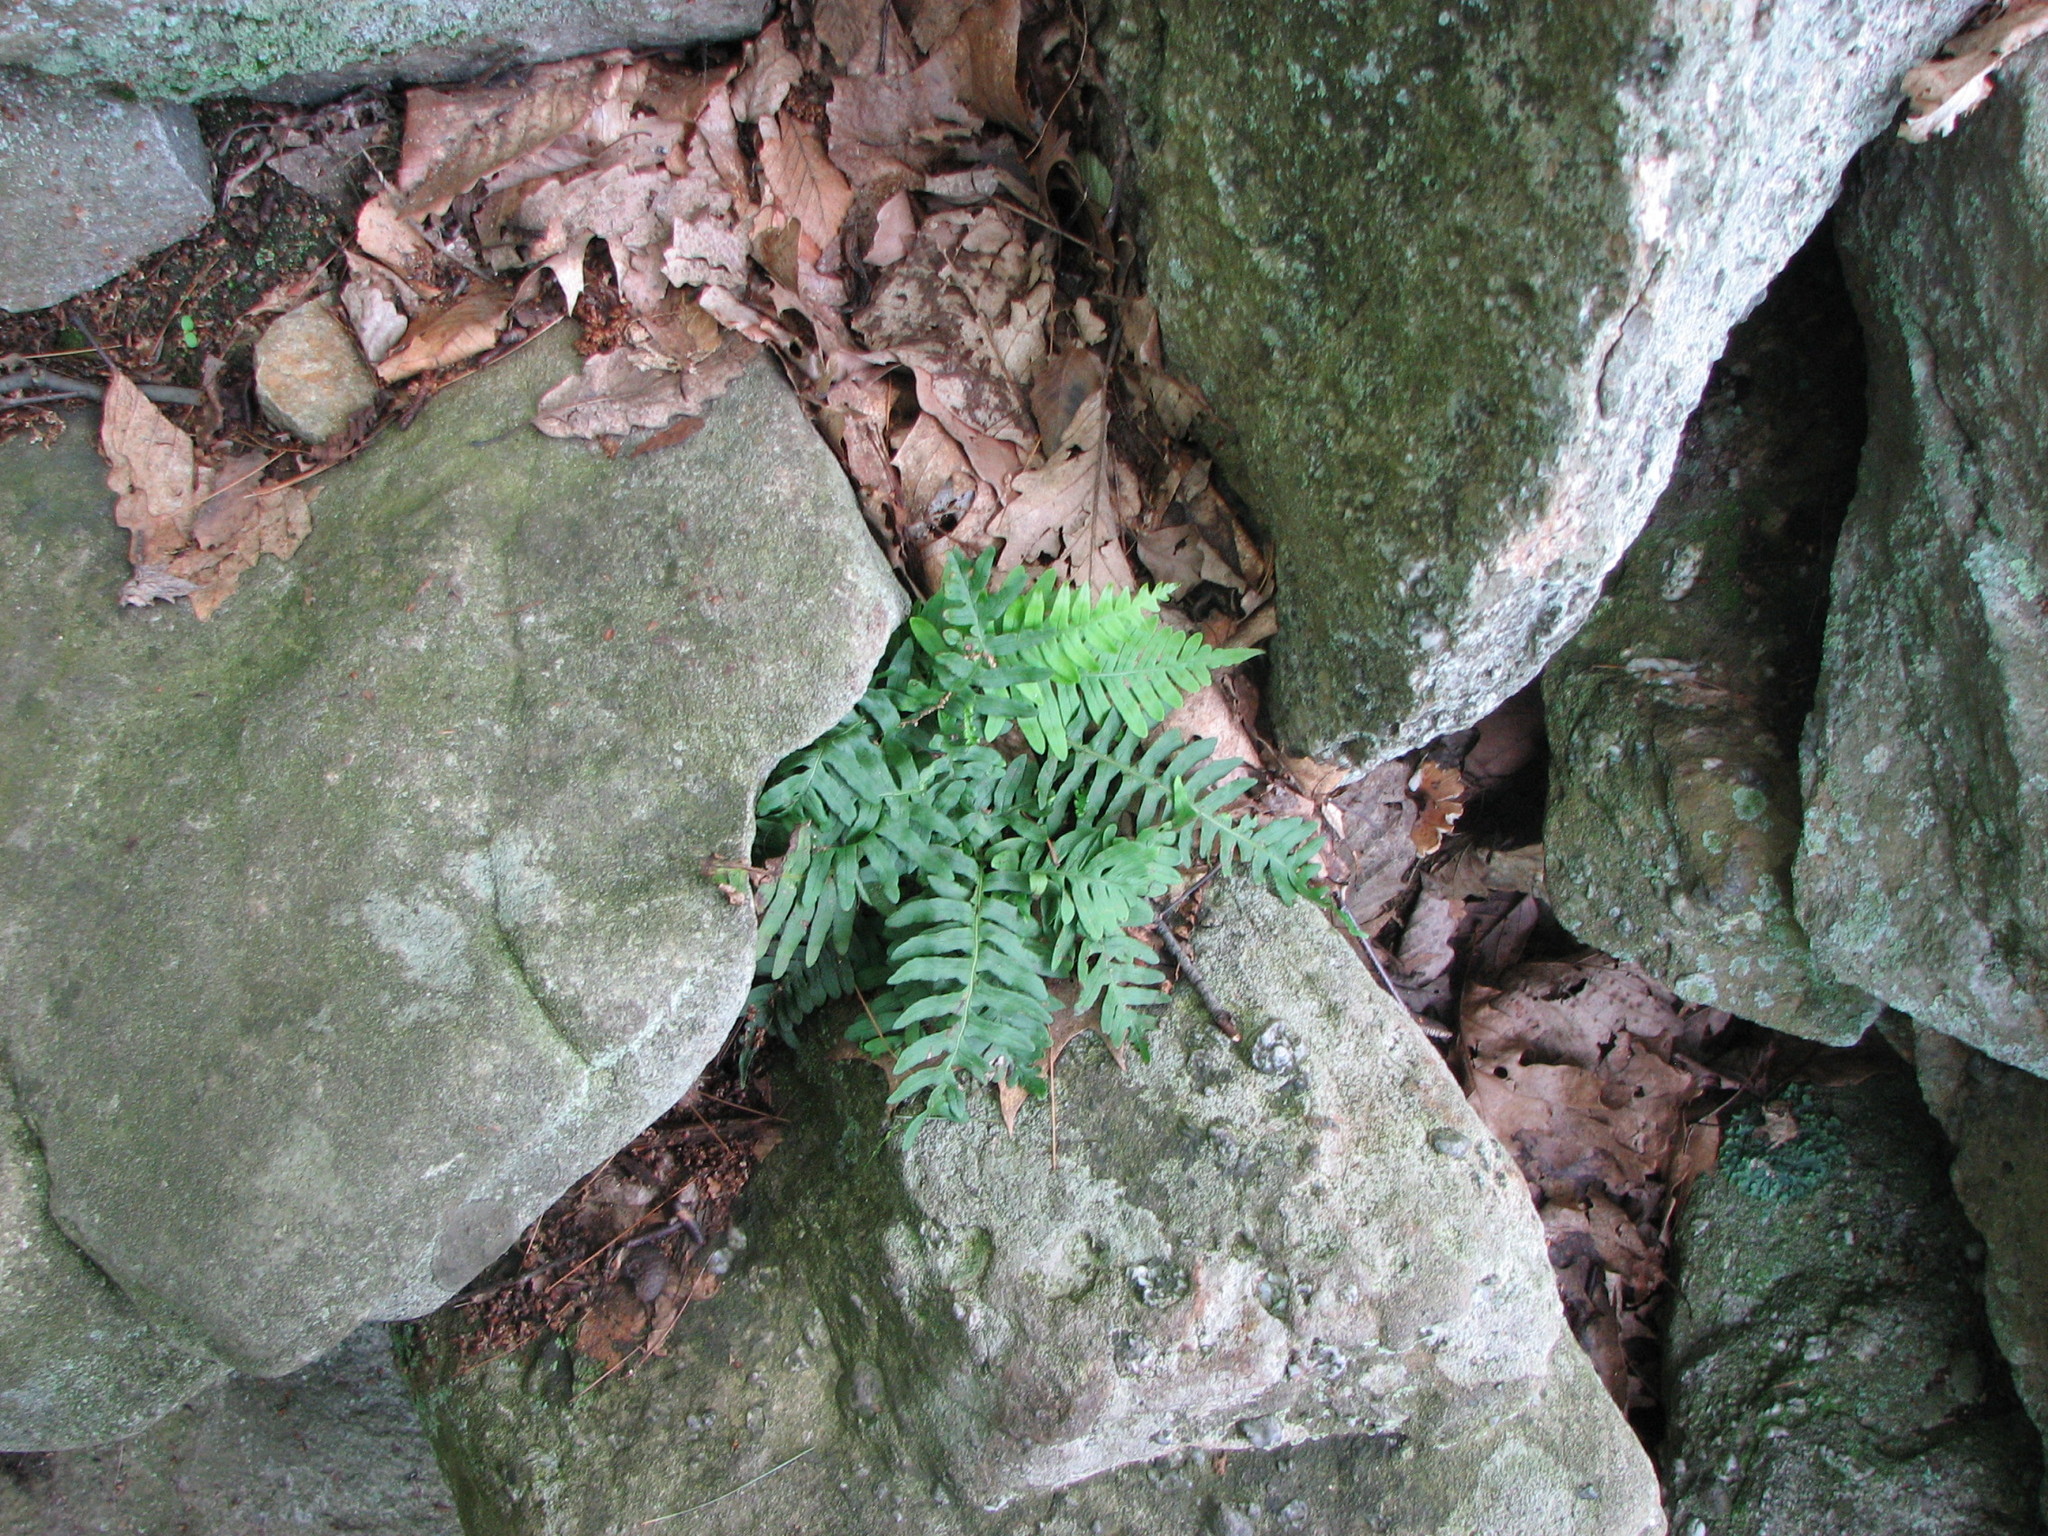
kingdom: Plantae
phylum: Tracheophyta
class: Polypodiopsida
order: Polypodiales
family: Polypodiaceae
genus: Polypodium
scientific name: Polypodium appalachianum
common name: Appalachian polypody
